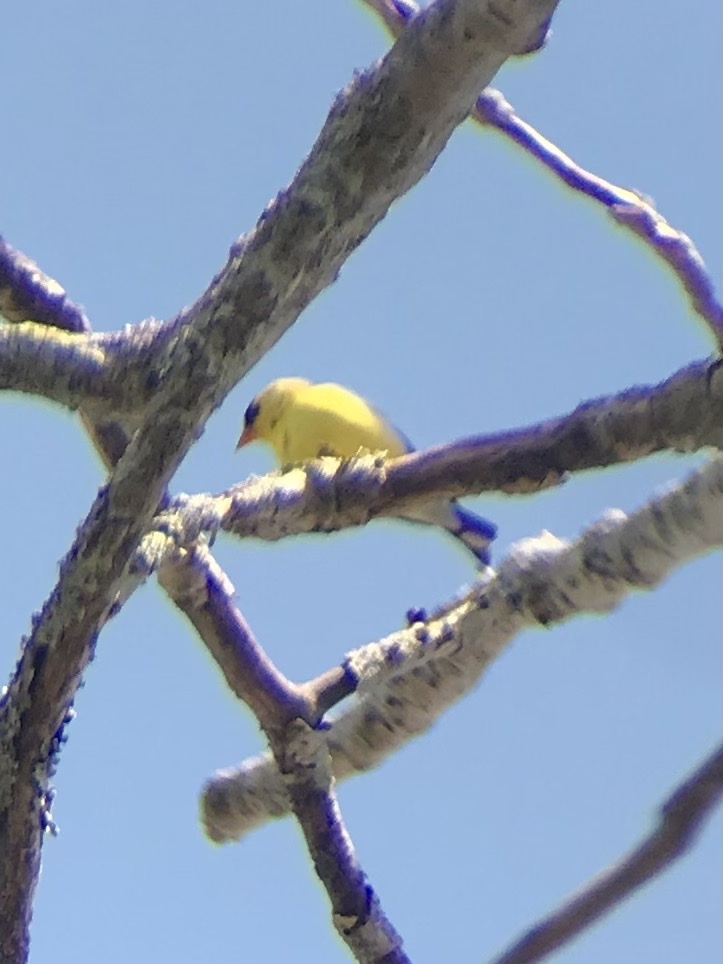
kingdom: Animalia
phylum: Chordata
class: Aves
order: Passeriformes
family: Fringillidae
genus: Spinus
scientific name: Spinus tristis
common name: American goldfinch
